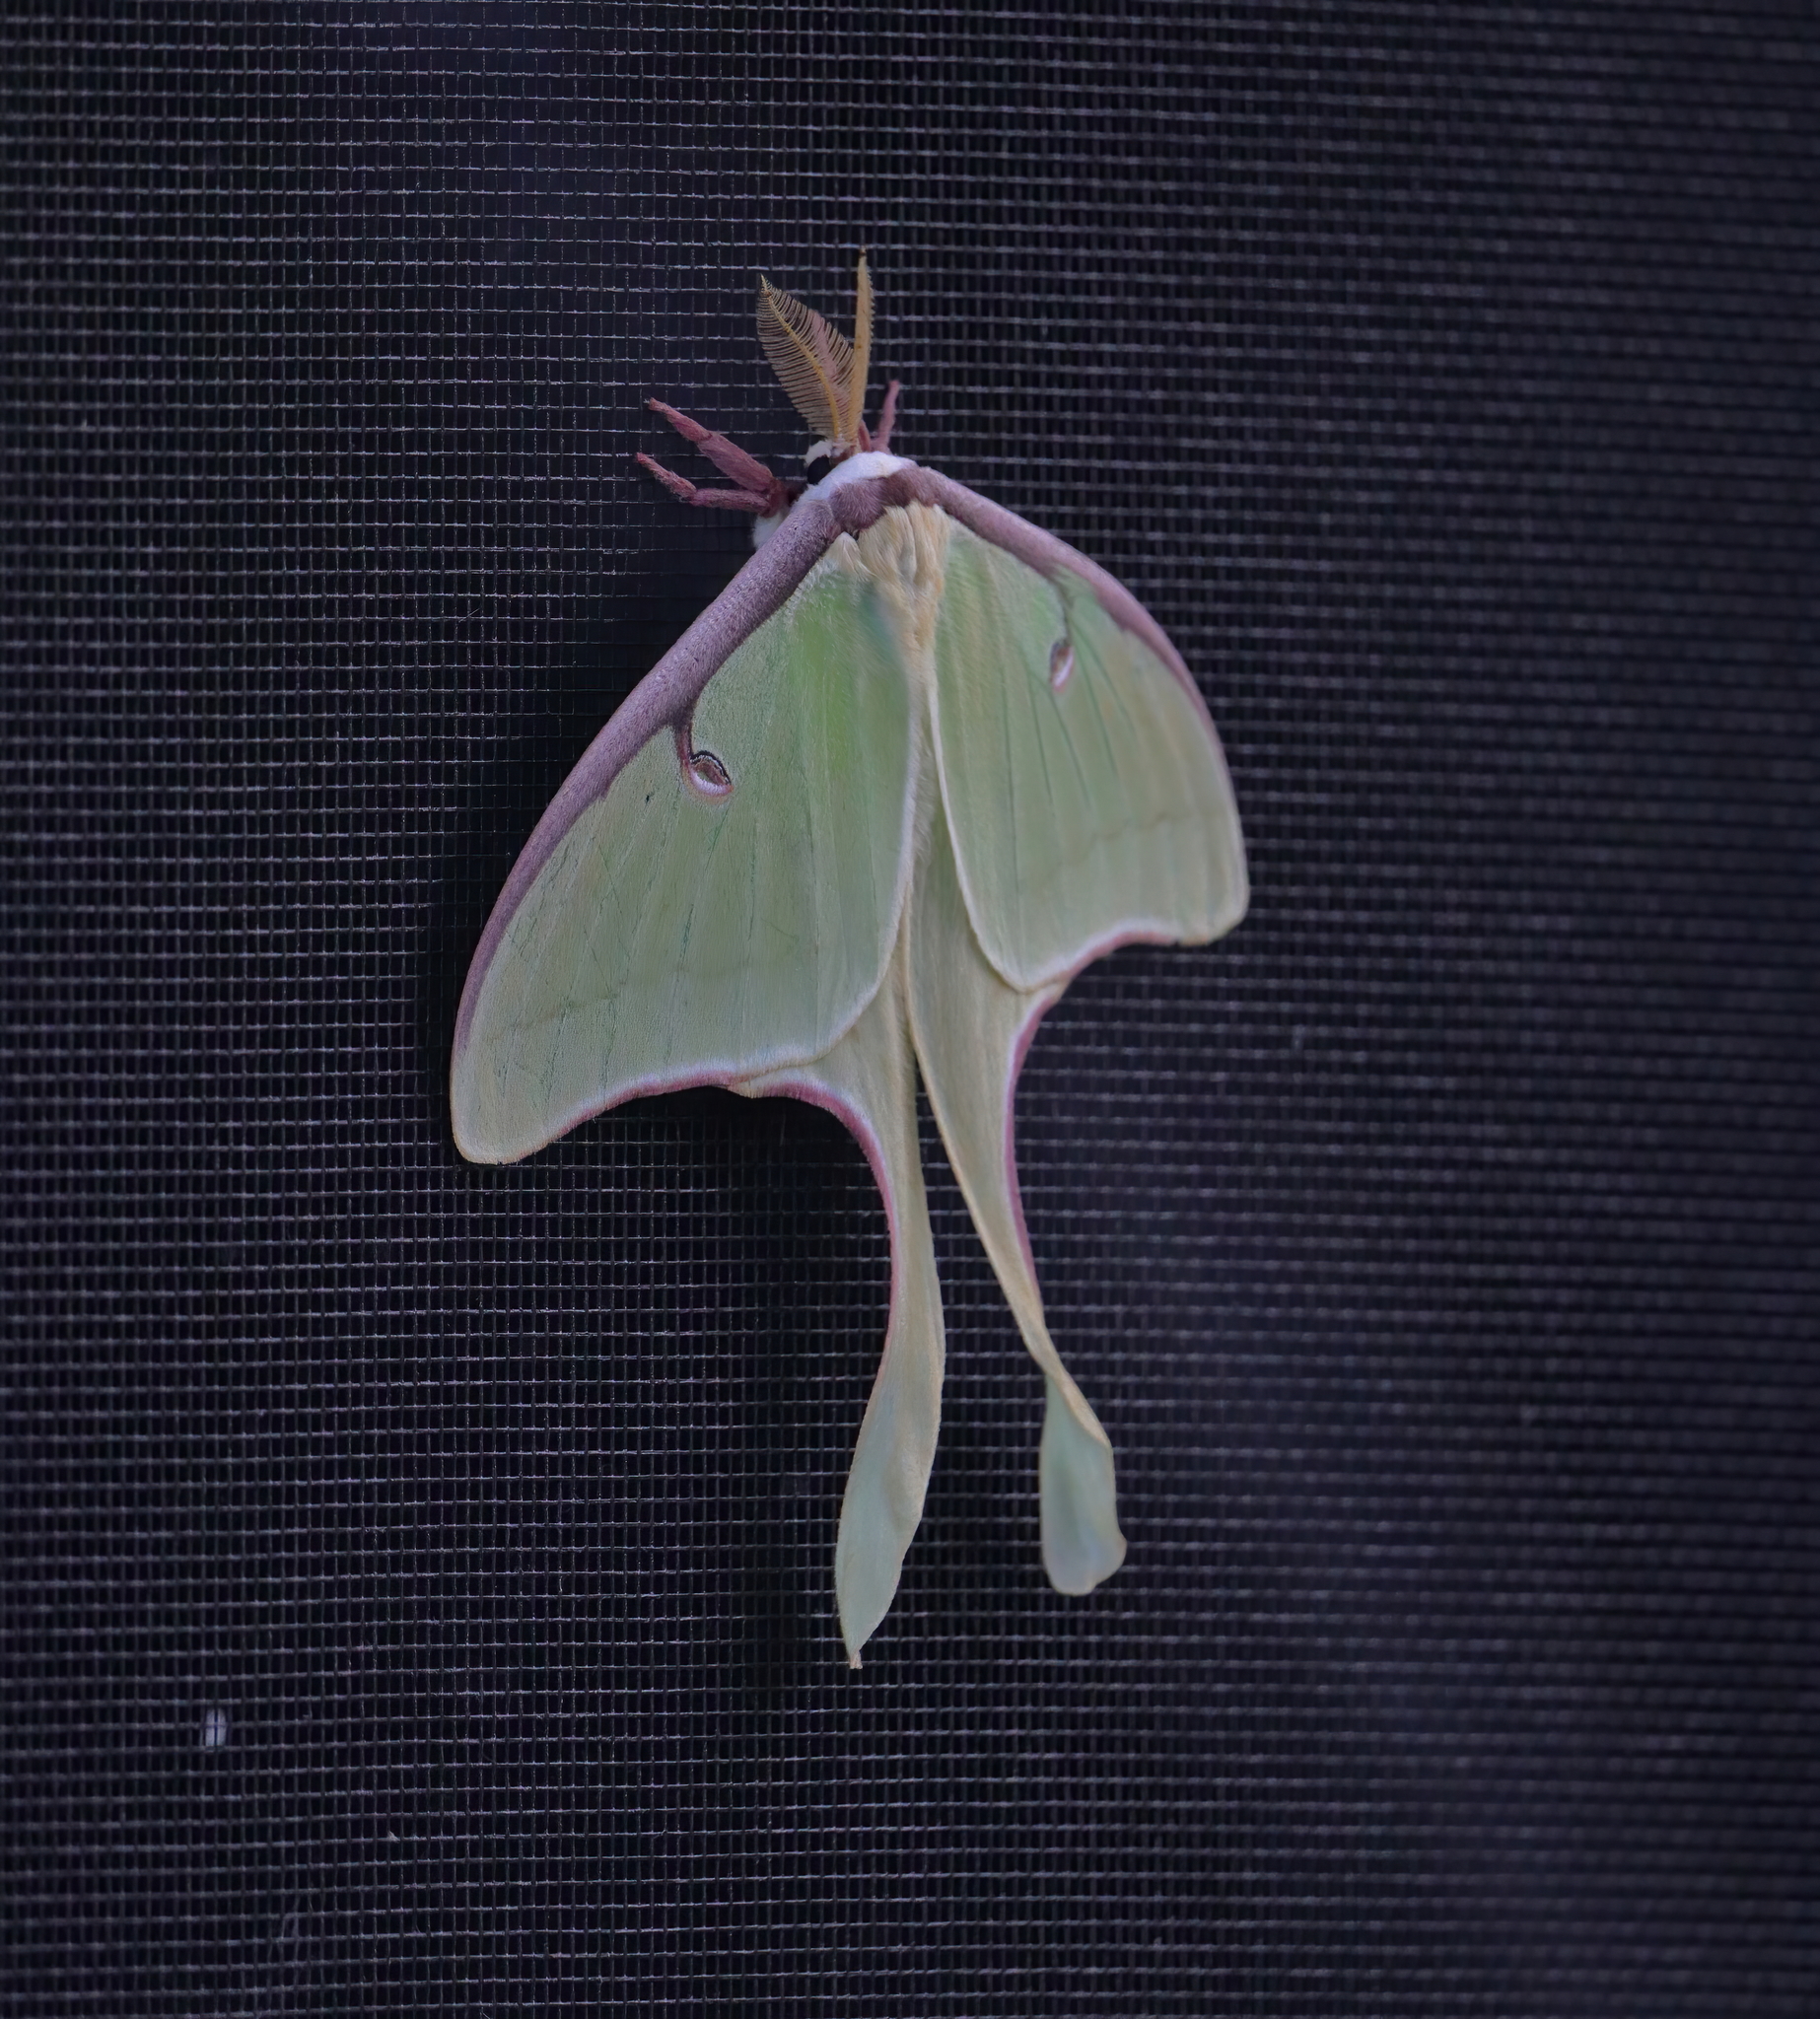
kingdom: Animalia
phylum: Arthropoda
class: Insecta
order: Lepidoptera
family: Saturniidae
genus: Actias
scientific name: Actias luna
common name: Luna moth
